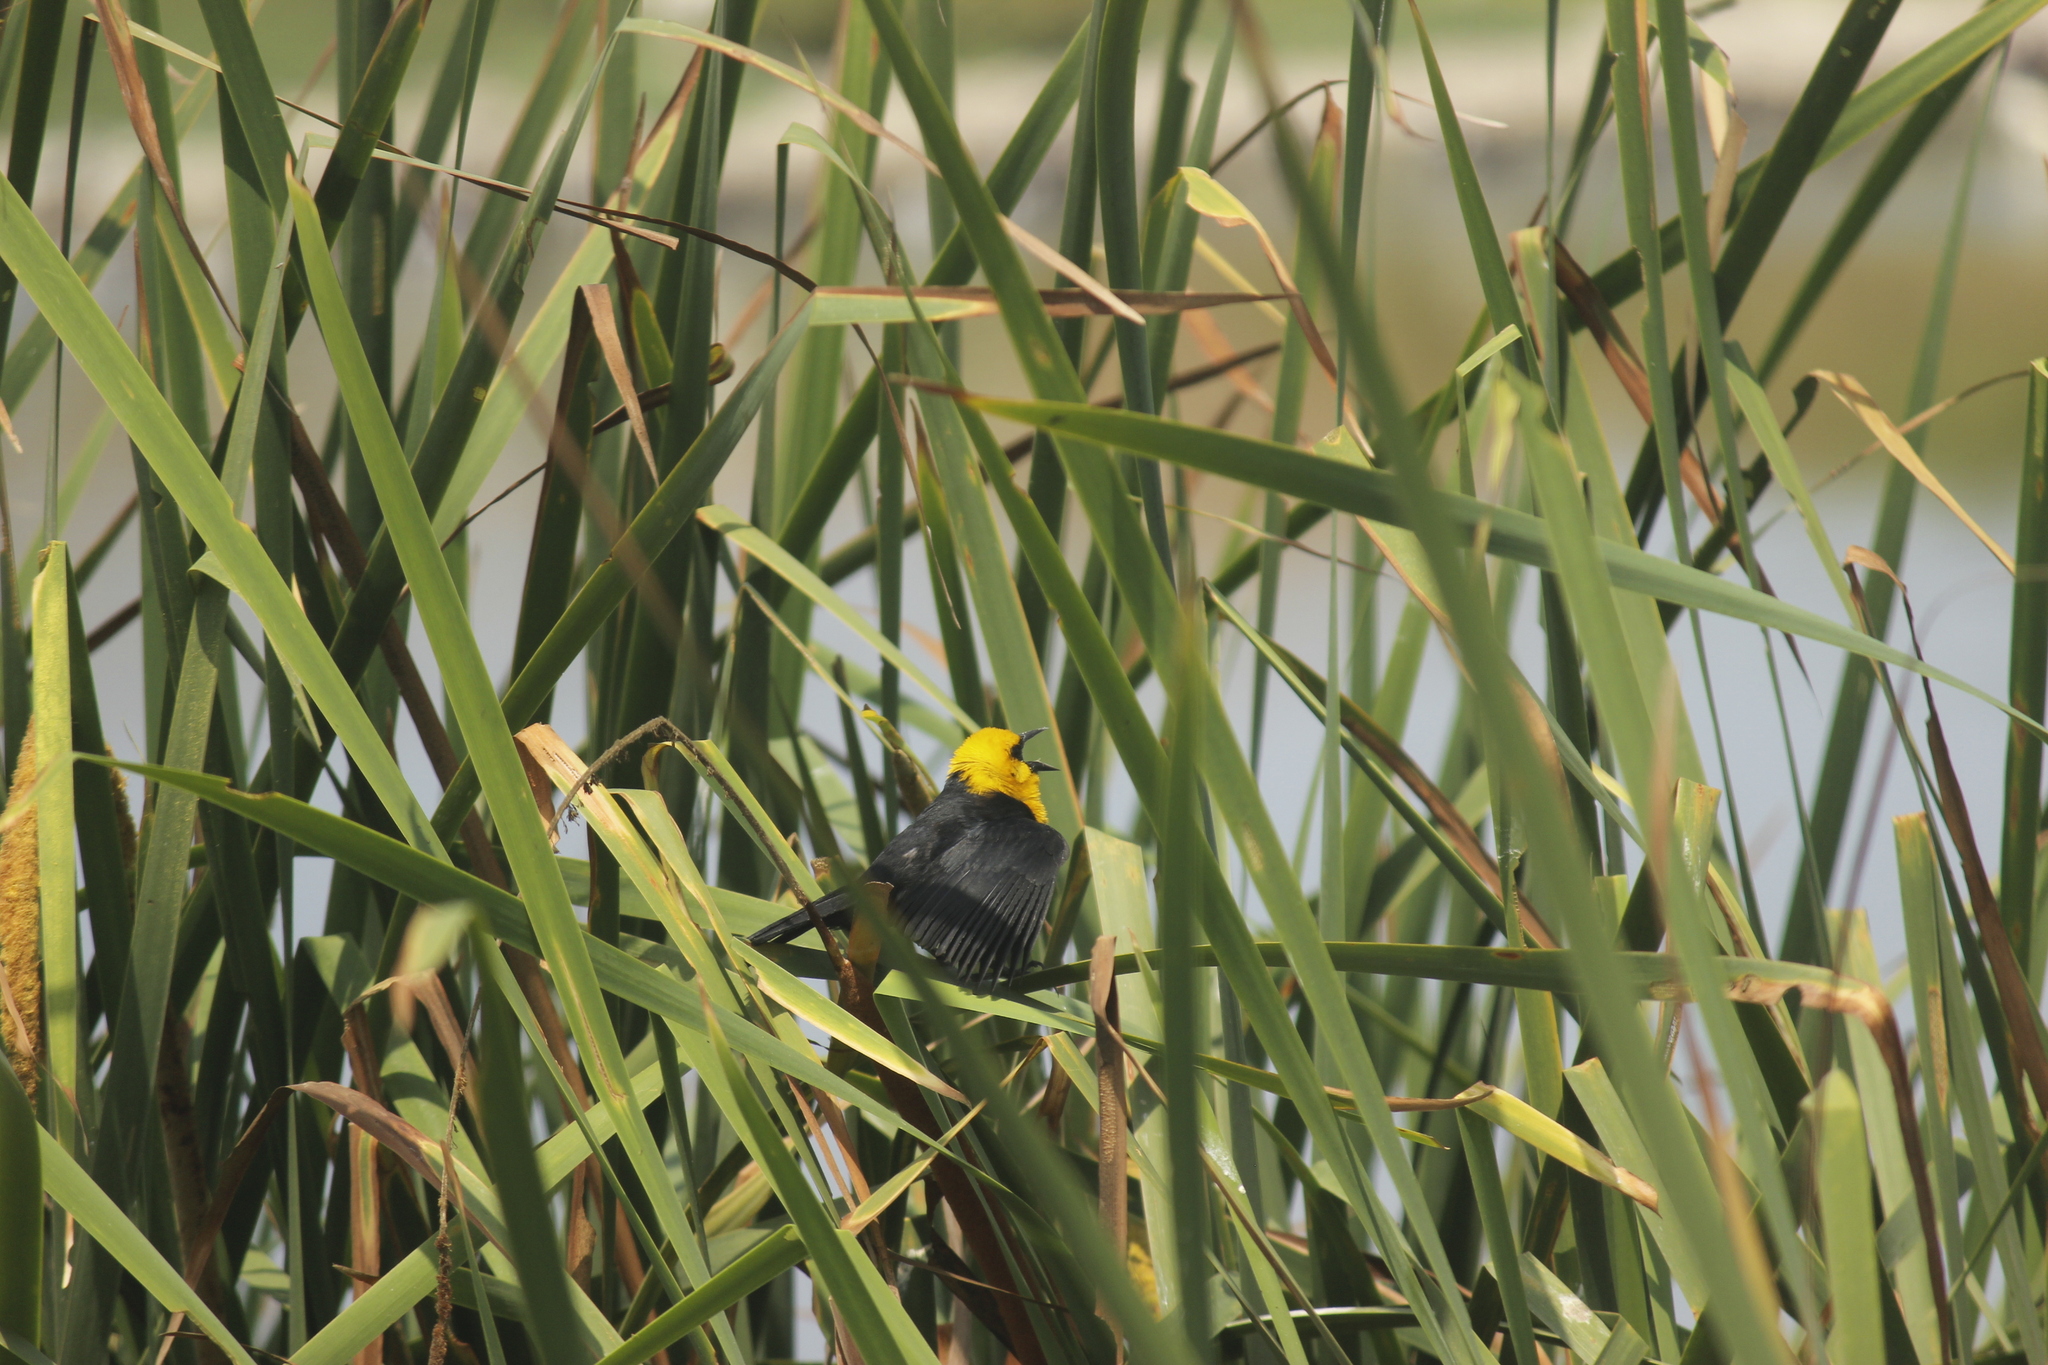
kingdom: Animalia
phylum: Chordata
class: Aves
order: Passeriformes
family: Icteridae
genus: Chrysomus
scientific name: Chrysomus icterocephalus
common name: Yellow-hooded blackbird
